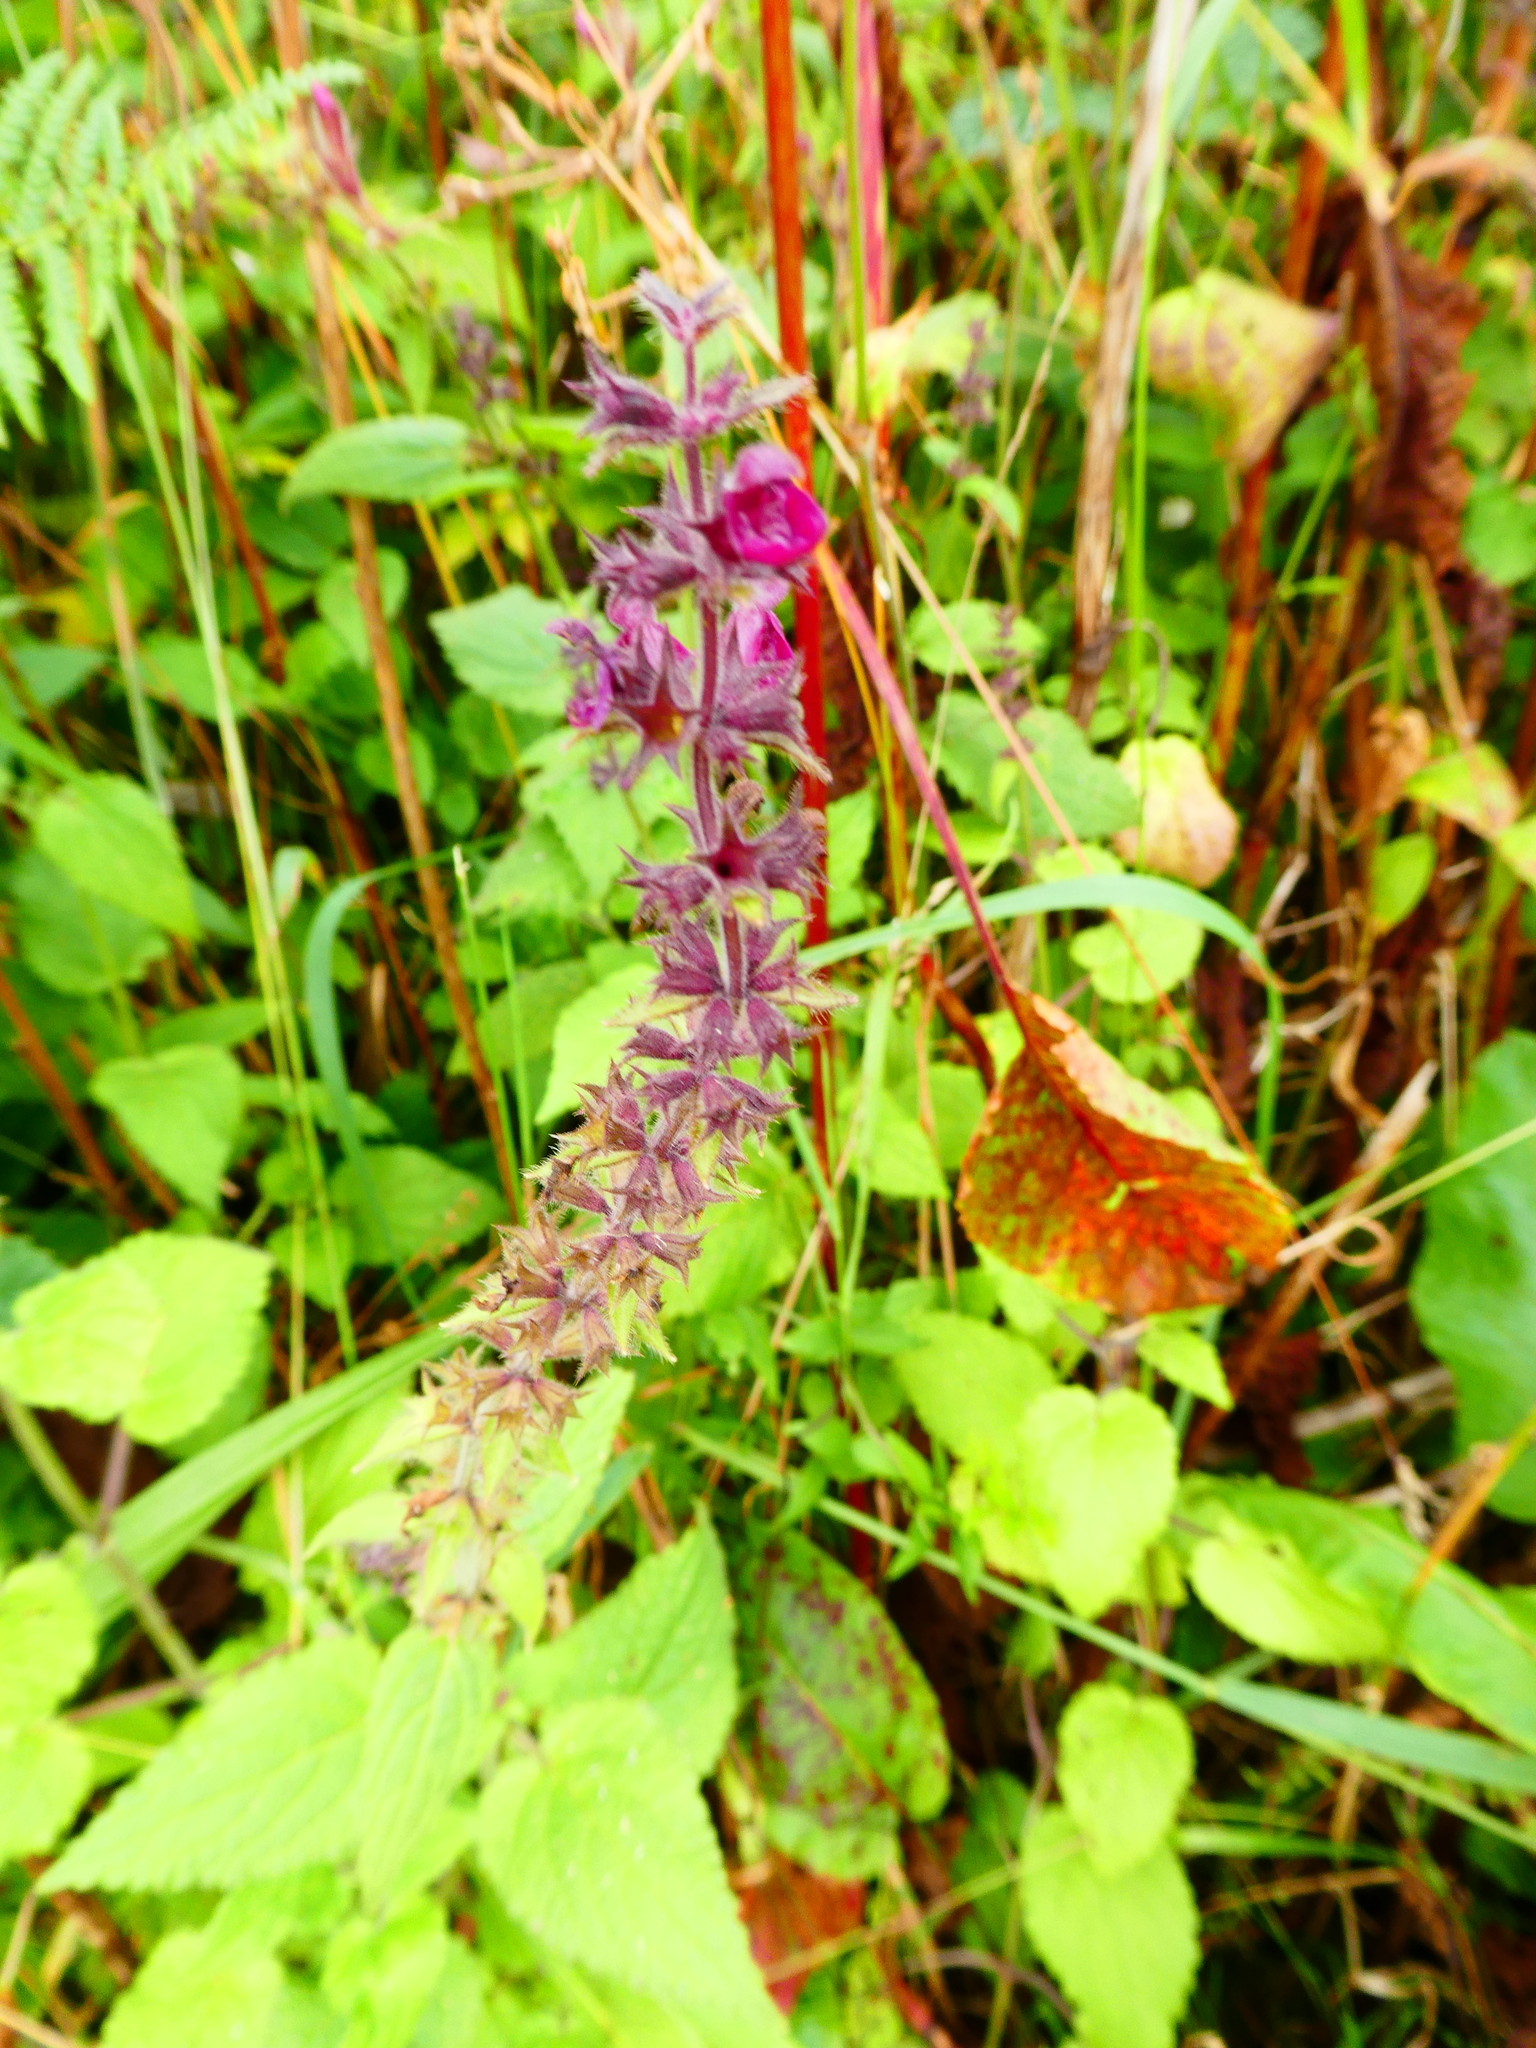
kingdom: Plantae
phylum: Tracheophyta
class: Magnoliopsida
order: Lamiales
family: Lamiaceae
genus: Stachys
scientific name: Stachys sylvatica
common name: Hedge woundwort
